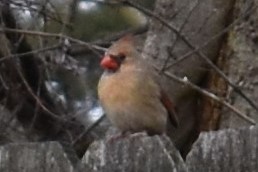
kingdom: Animalia
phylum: Chordata
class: Aves
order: Passeriformes
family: Cardinalidae
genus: Cardinalis
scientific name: Cardinalis cardinalis
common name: Northern cardinal
